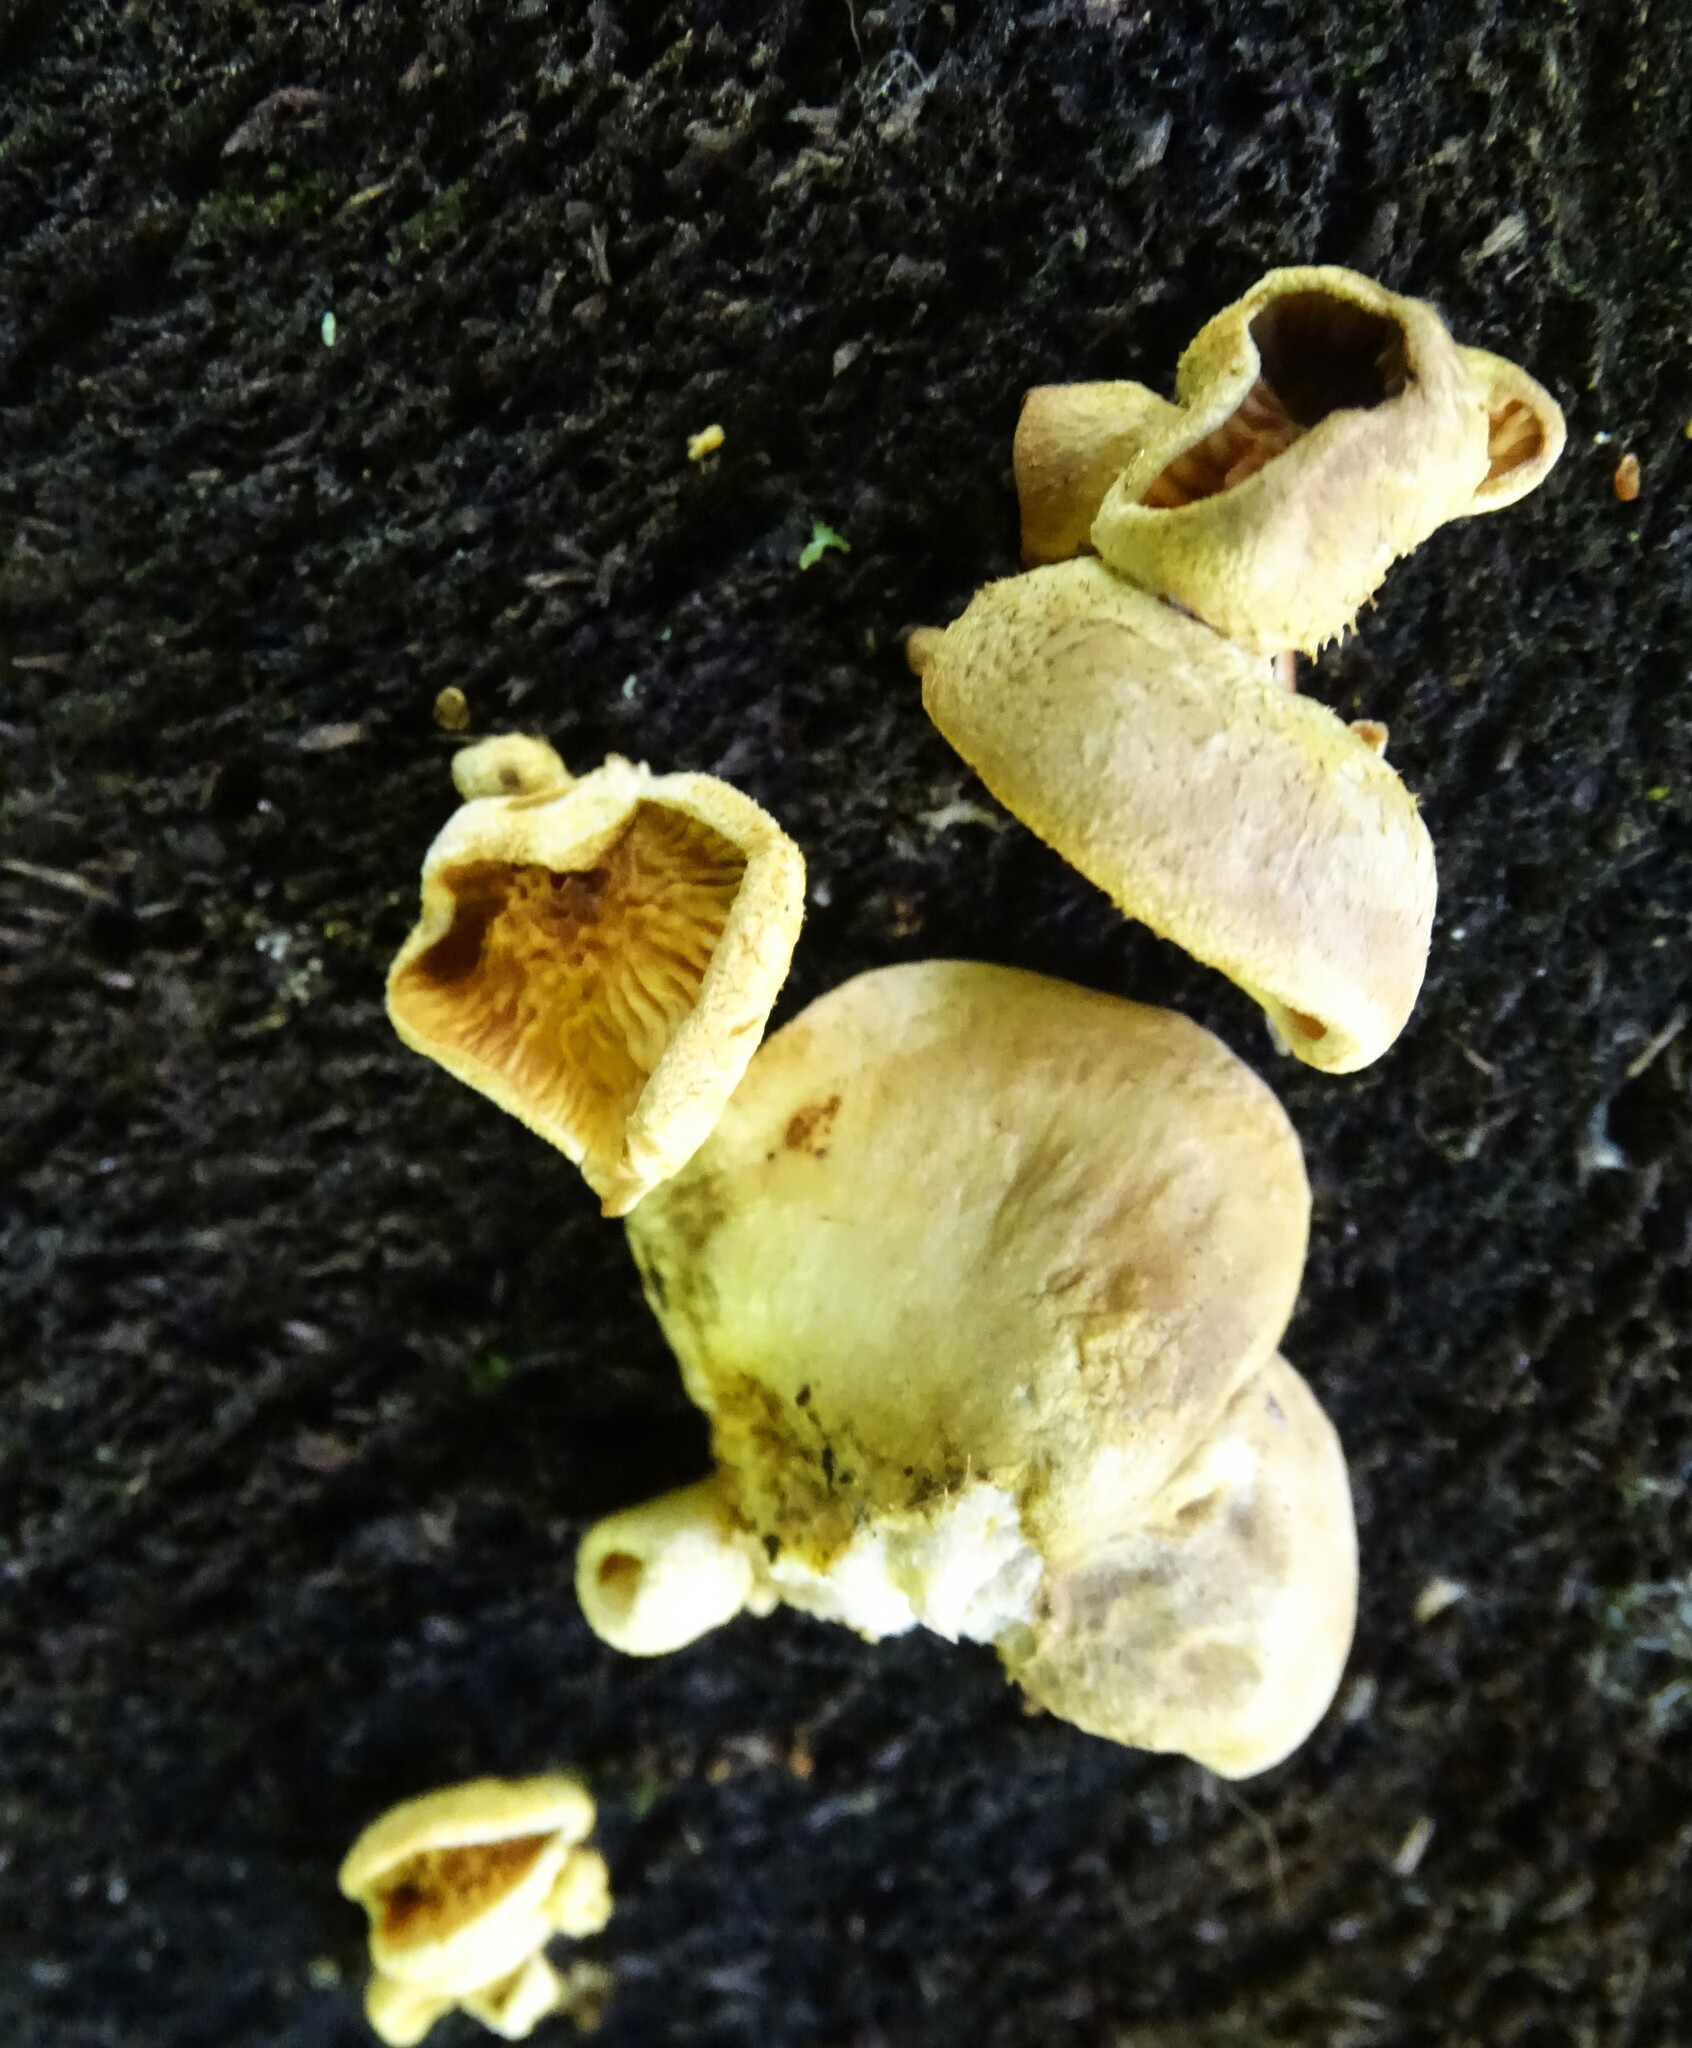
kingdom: Fungi
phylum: Basidiomycota
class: Agaricomycetes
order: Boletales
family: Tapinellaceae
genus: Tapinella
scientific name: Tapinella panuoides
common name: Oyster rollrim
